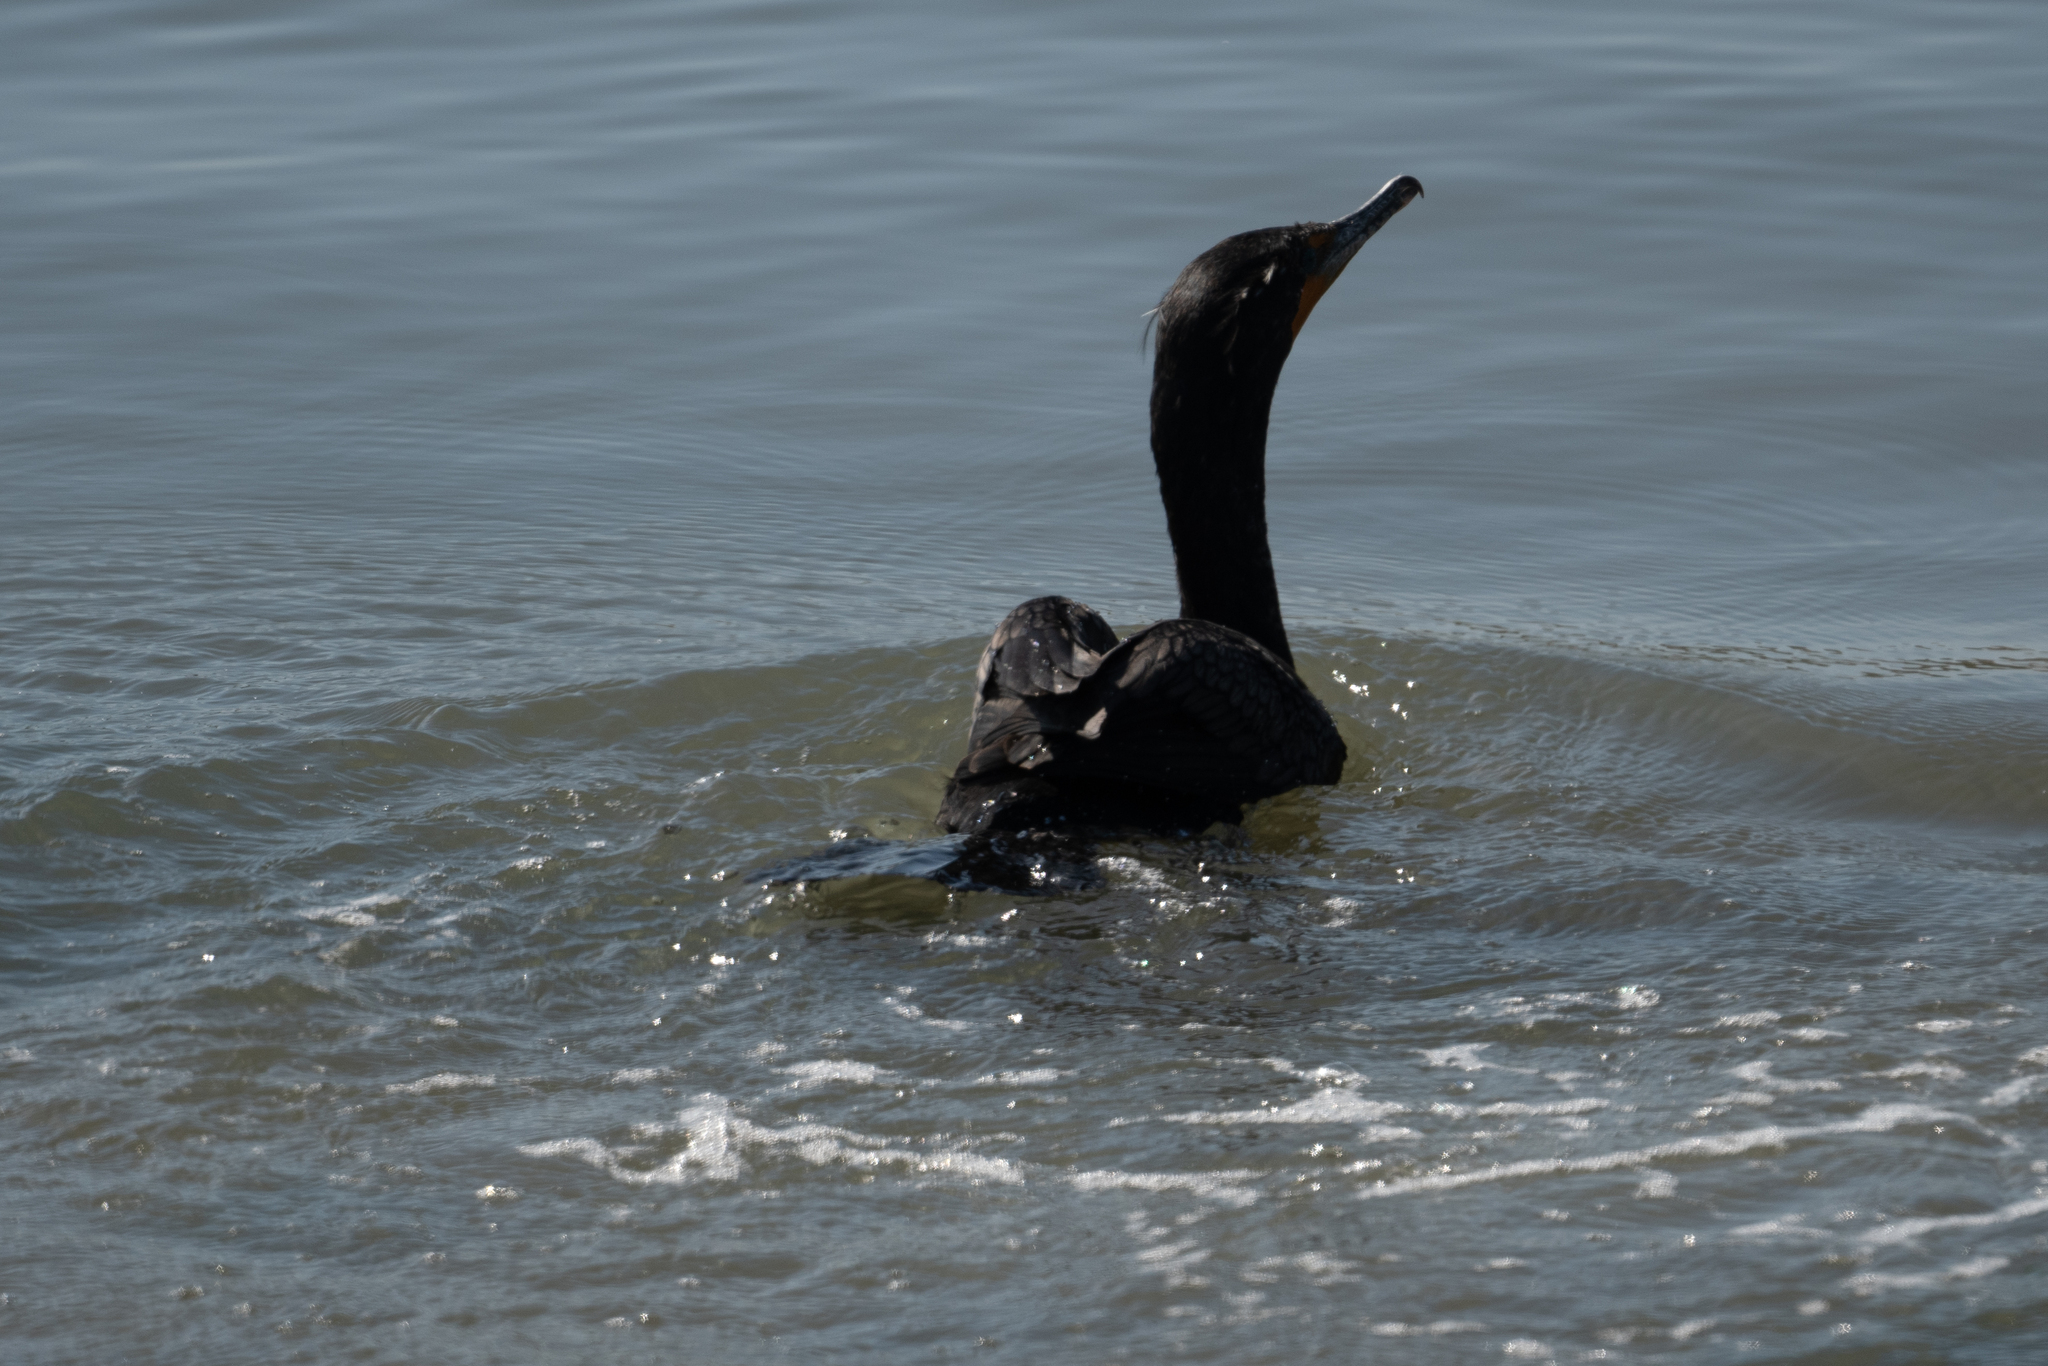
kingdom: Animalia
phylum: Chordata
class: Aves
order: Suliformes
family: Phalacrocoracidae
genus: Phalacrocorax
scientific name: Phalacrocorax auritus
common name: Double-crested cormorant
